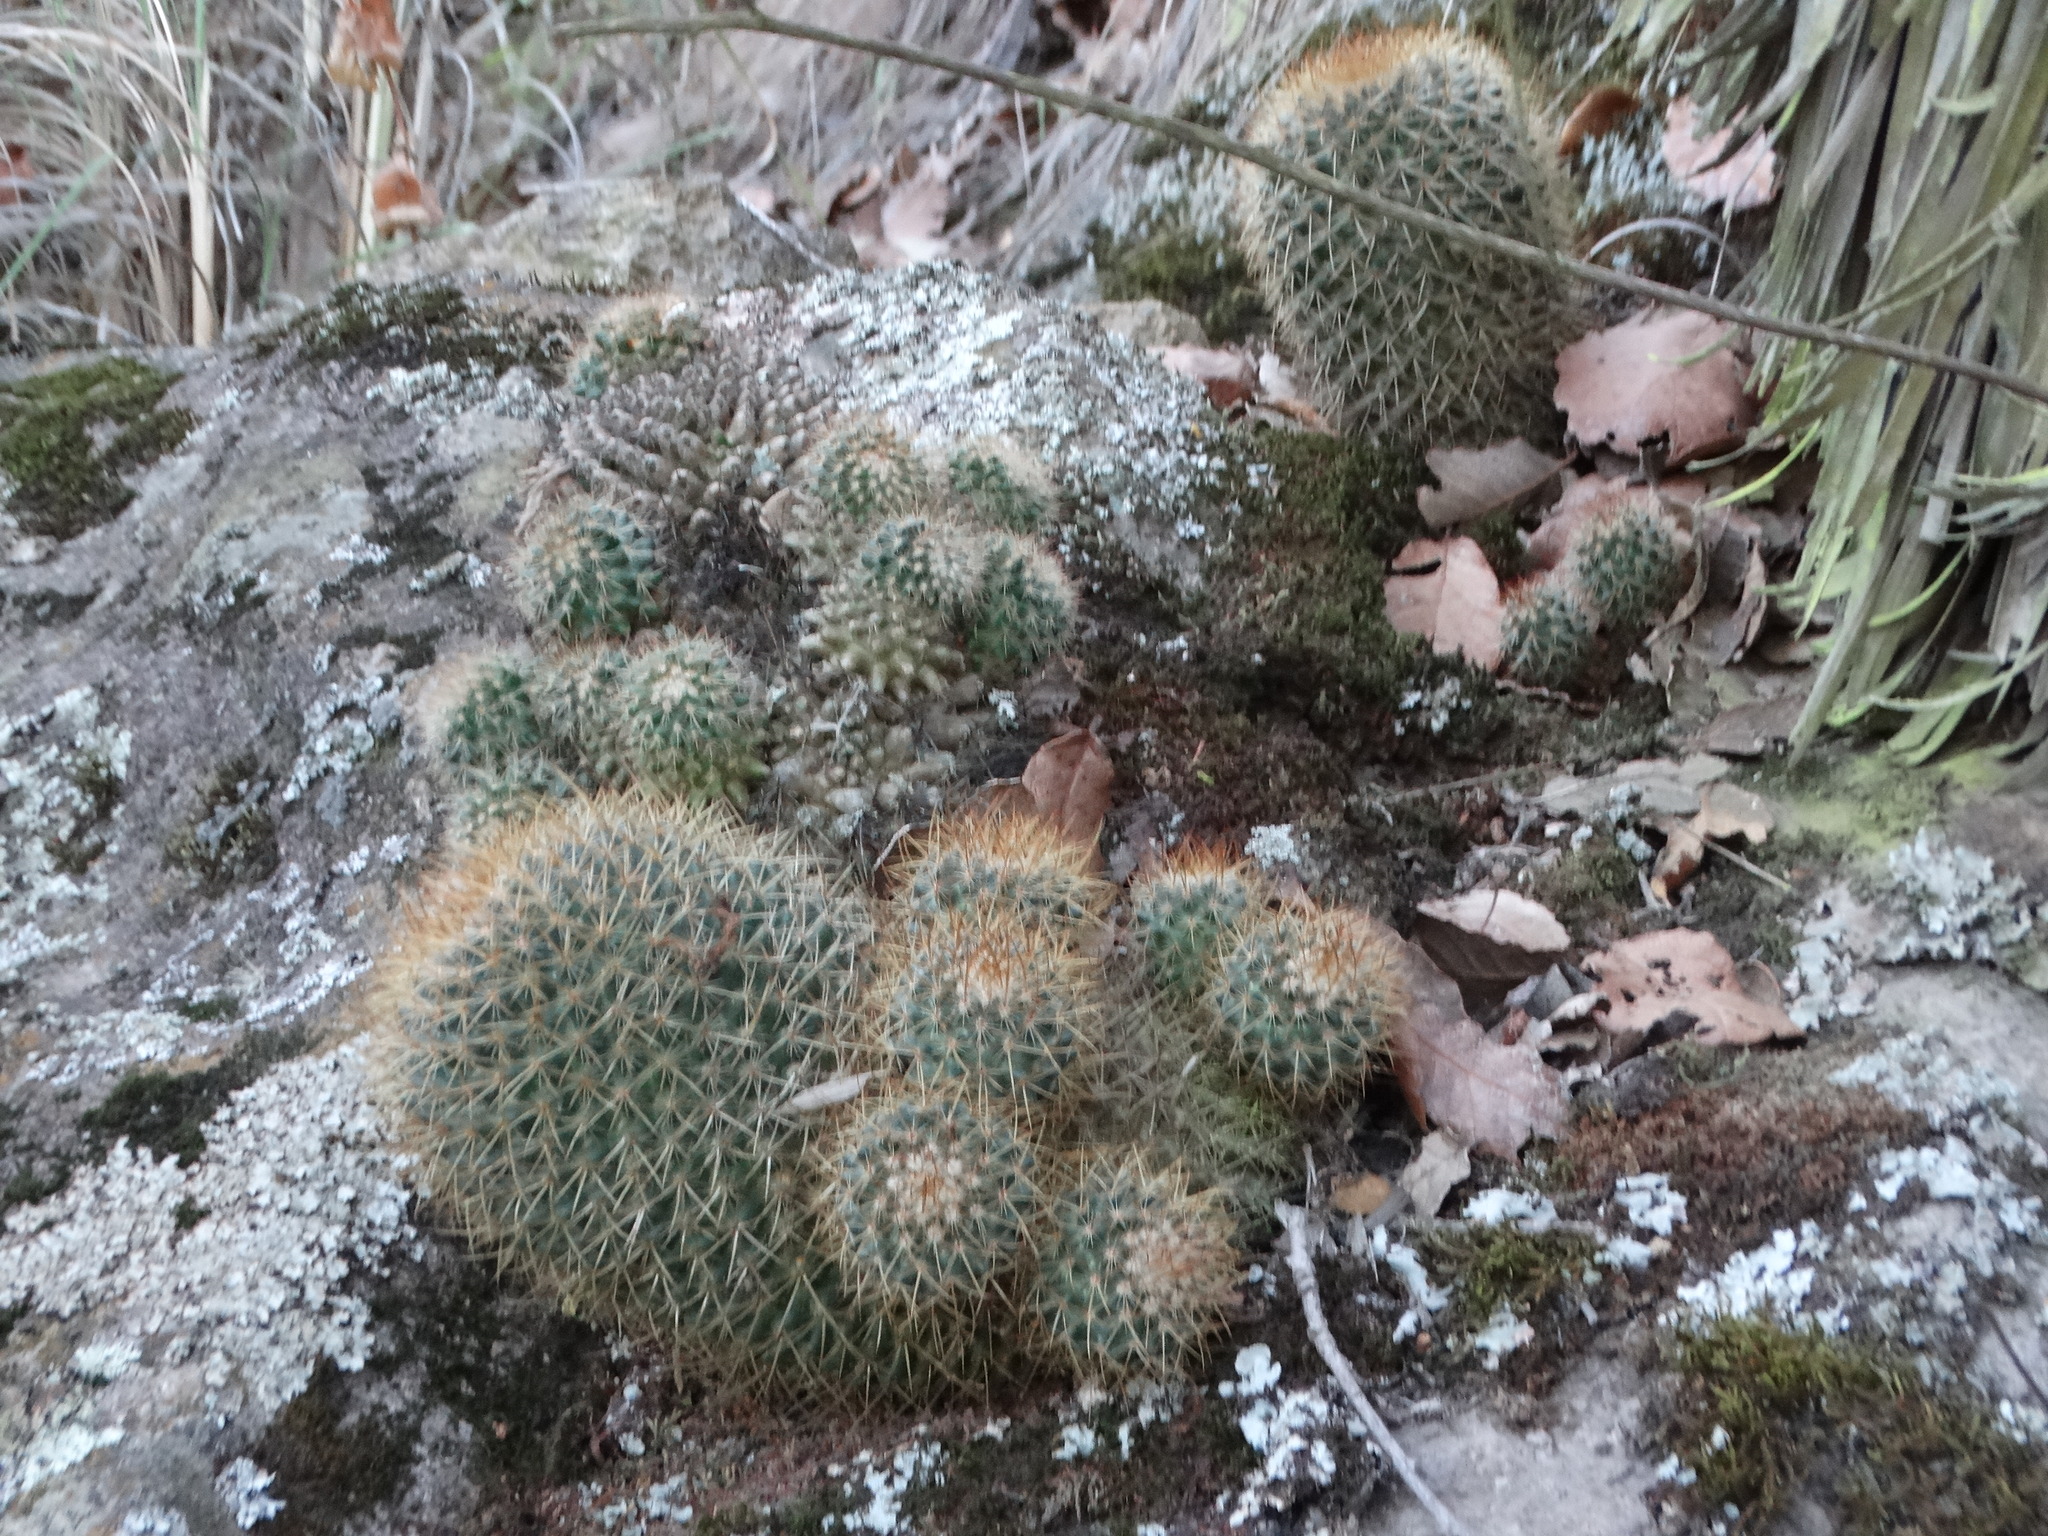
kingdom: Plantae
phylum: Tracheophyta
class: Magnoliopsida
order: Caryophyllales
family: Cactaceae
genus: Mammillaria
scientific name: Mammillaria rhodantha
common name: Rainbow pincushion
